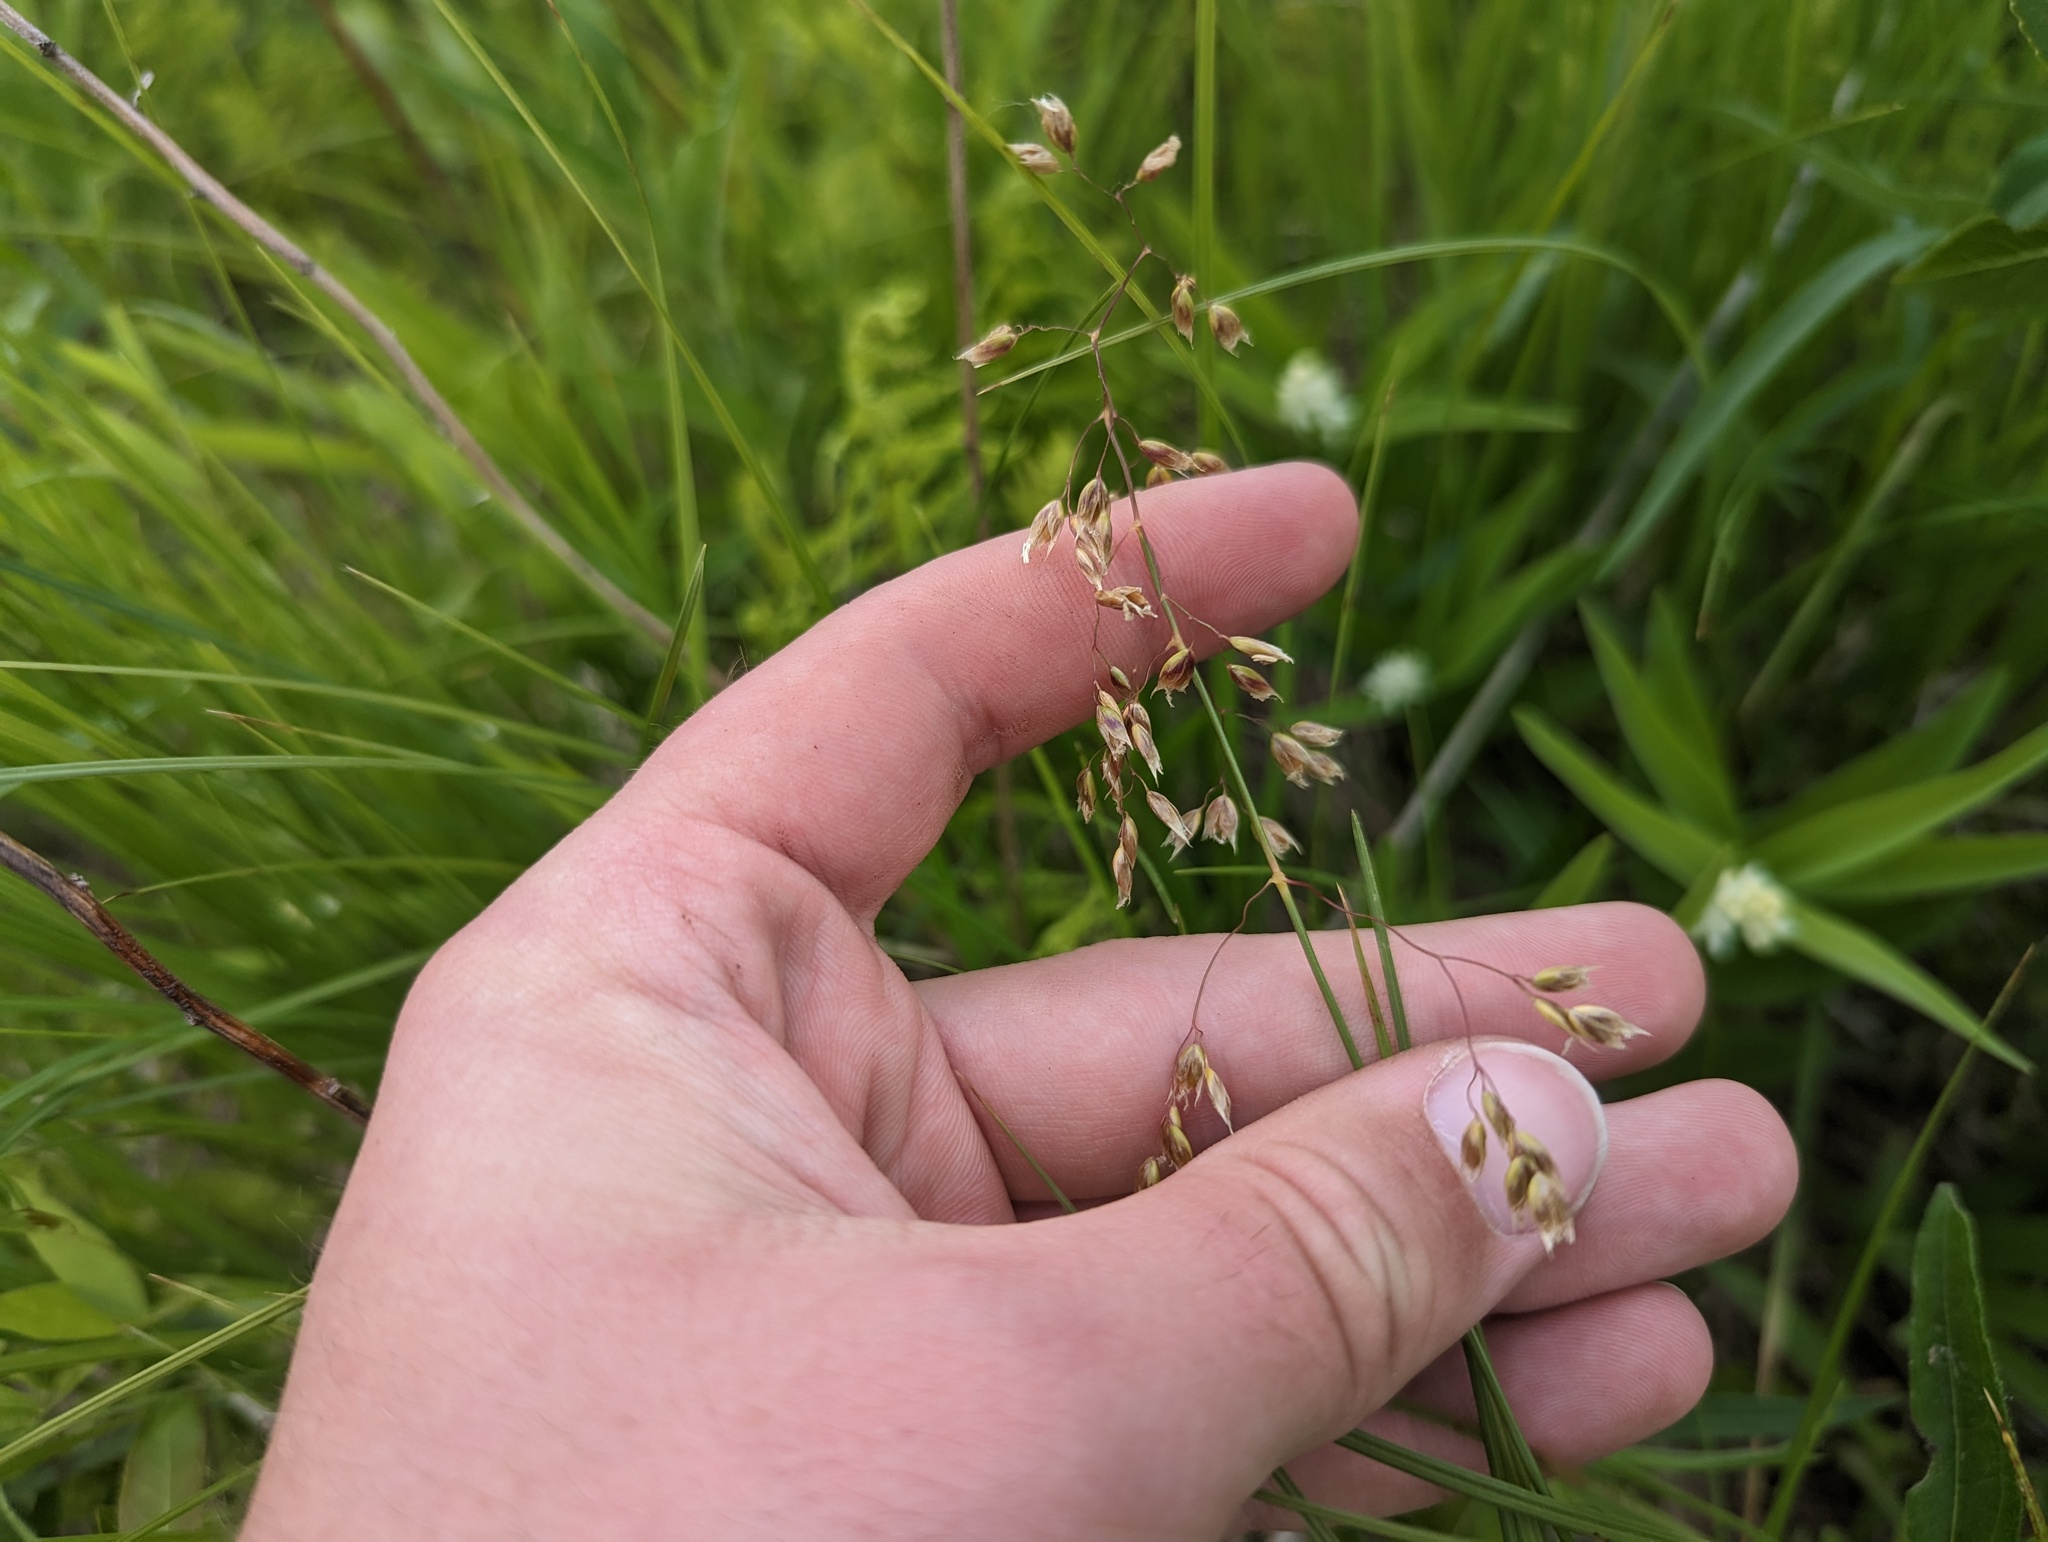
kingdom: Plantae
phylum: Tracheophyta
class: Liliopsida
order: Poales
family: Poaceae
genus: Anthoxanthum
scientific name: Anthoxanthum nitens
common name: Holy grass
